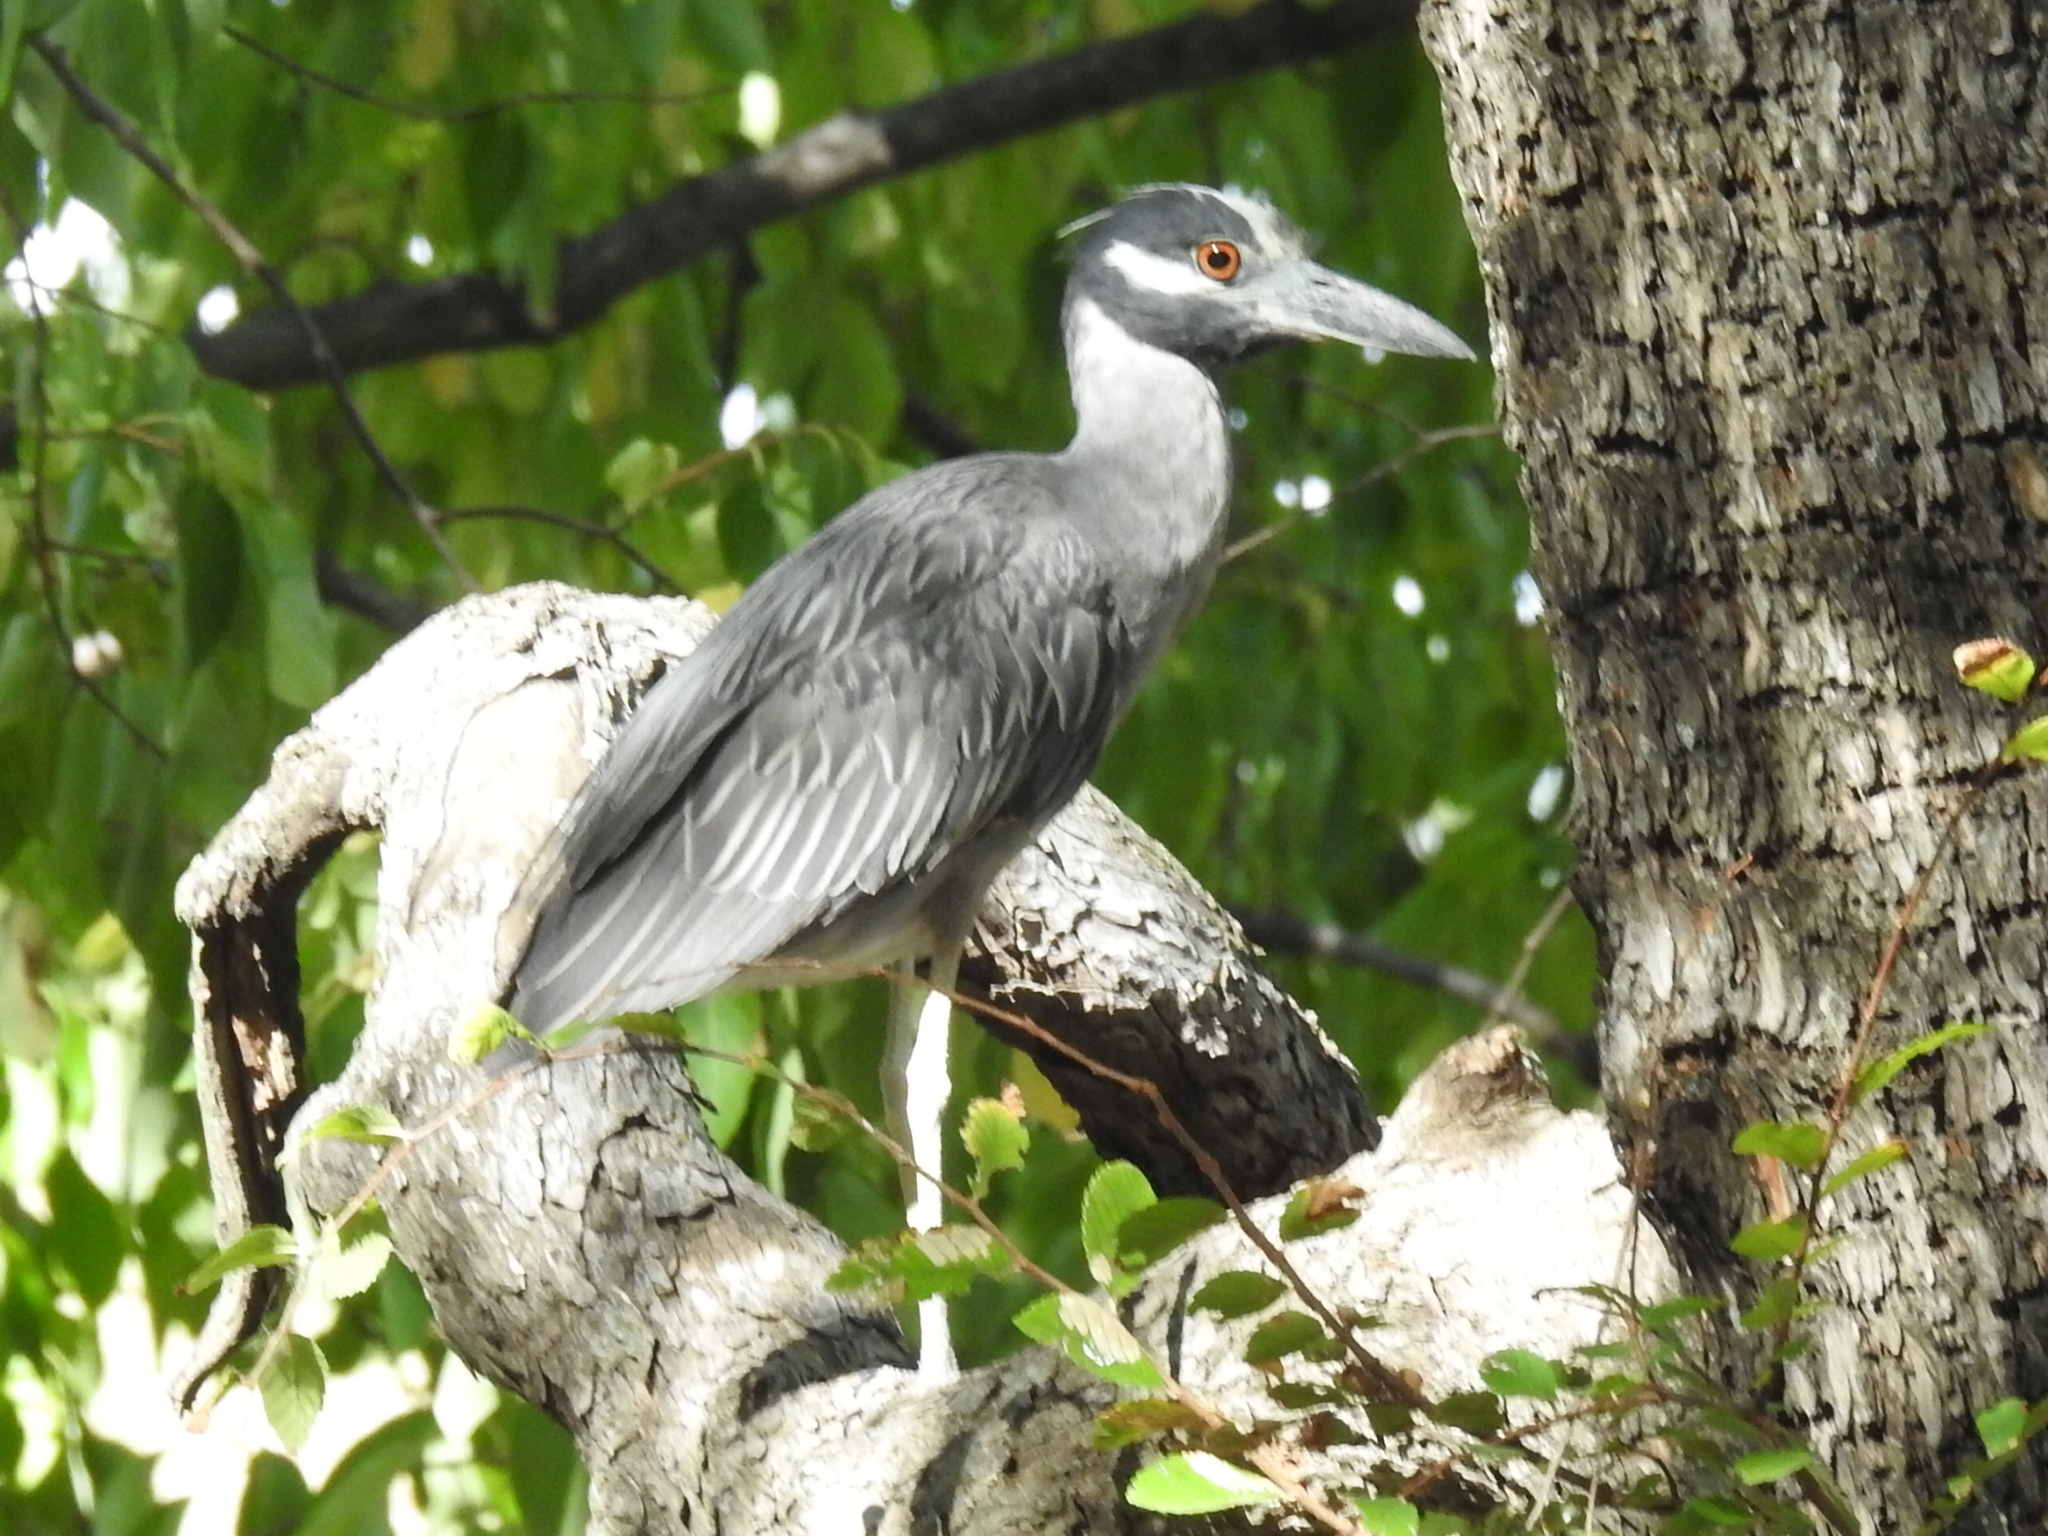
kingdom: Animalia
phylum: Chordata
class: Aves
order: Pelecaniformes
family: Ardeidae
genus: Nyctanassa
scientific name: Nyctanassa violacea
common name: Yellow-crowned night heron
